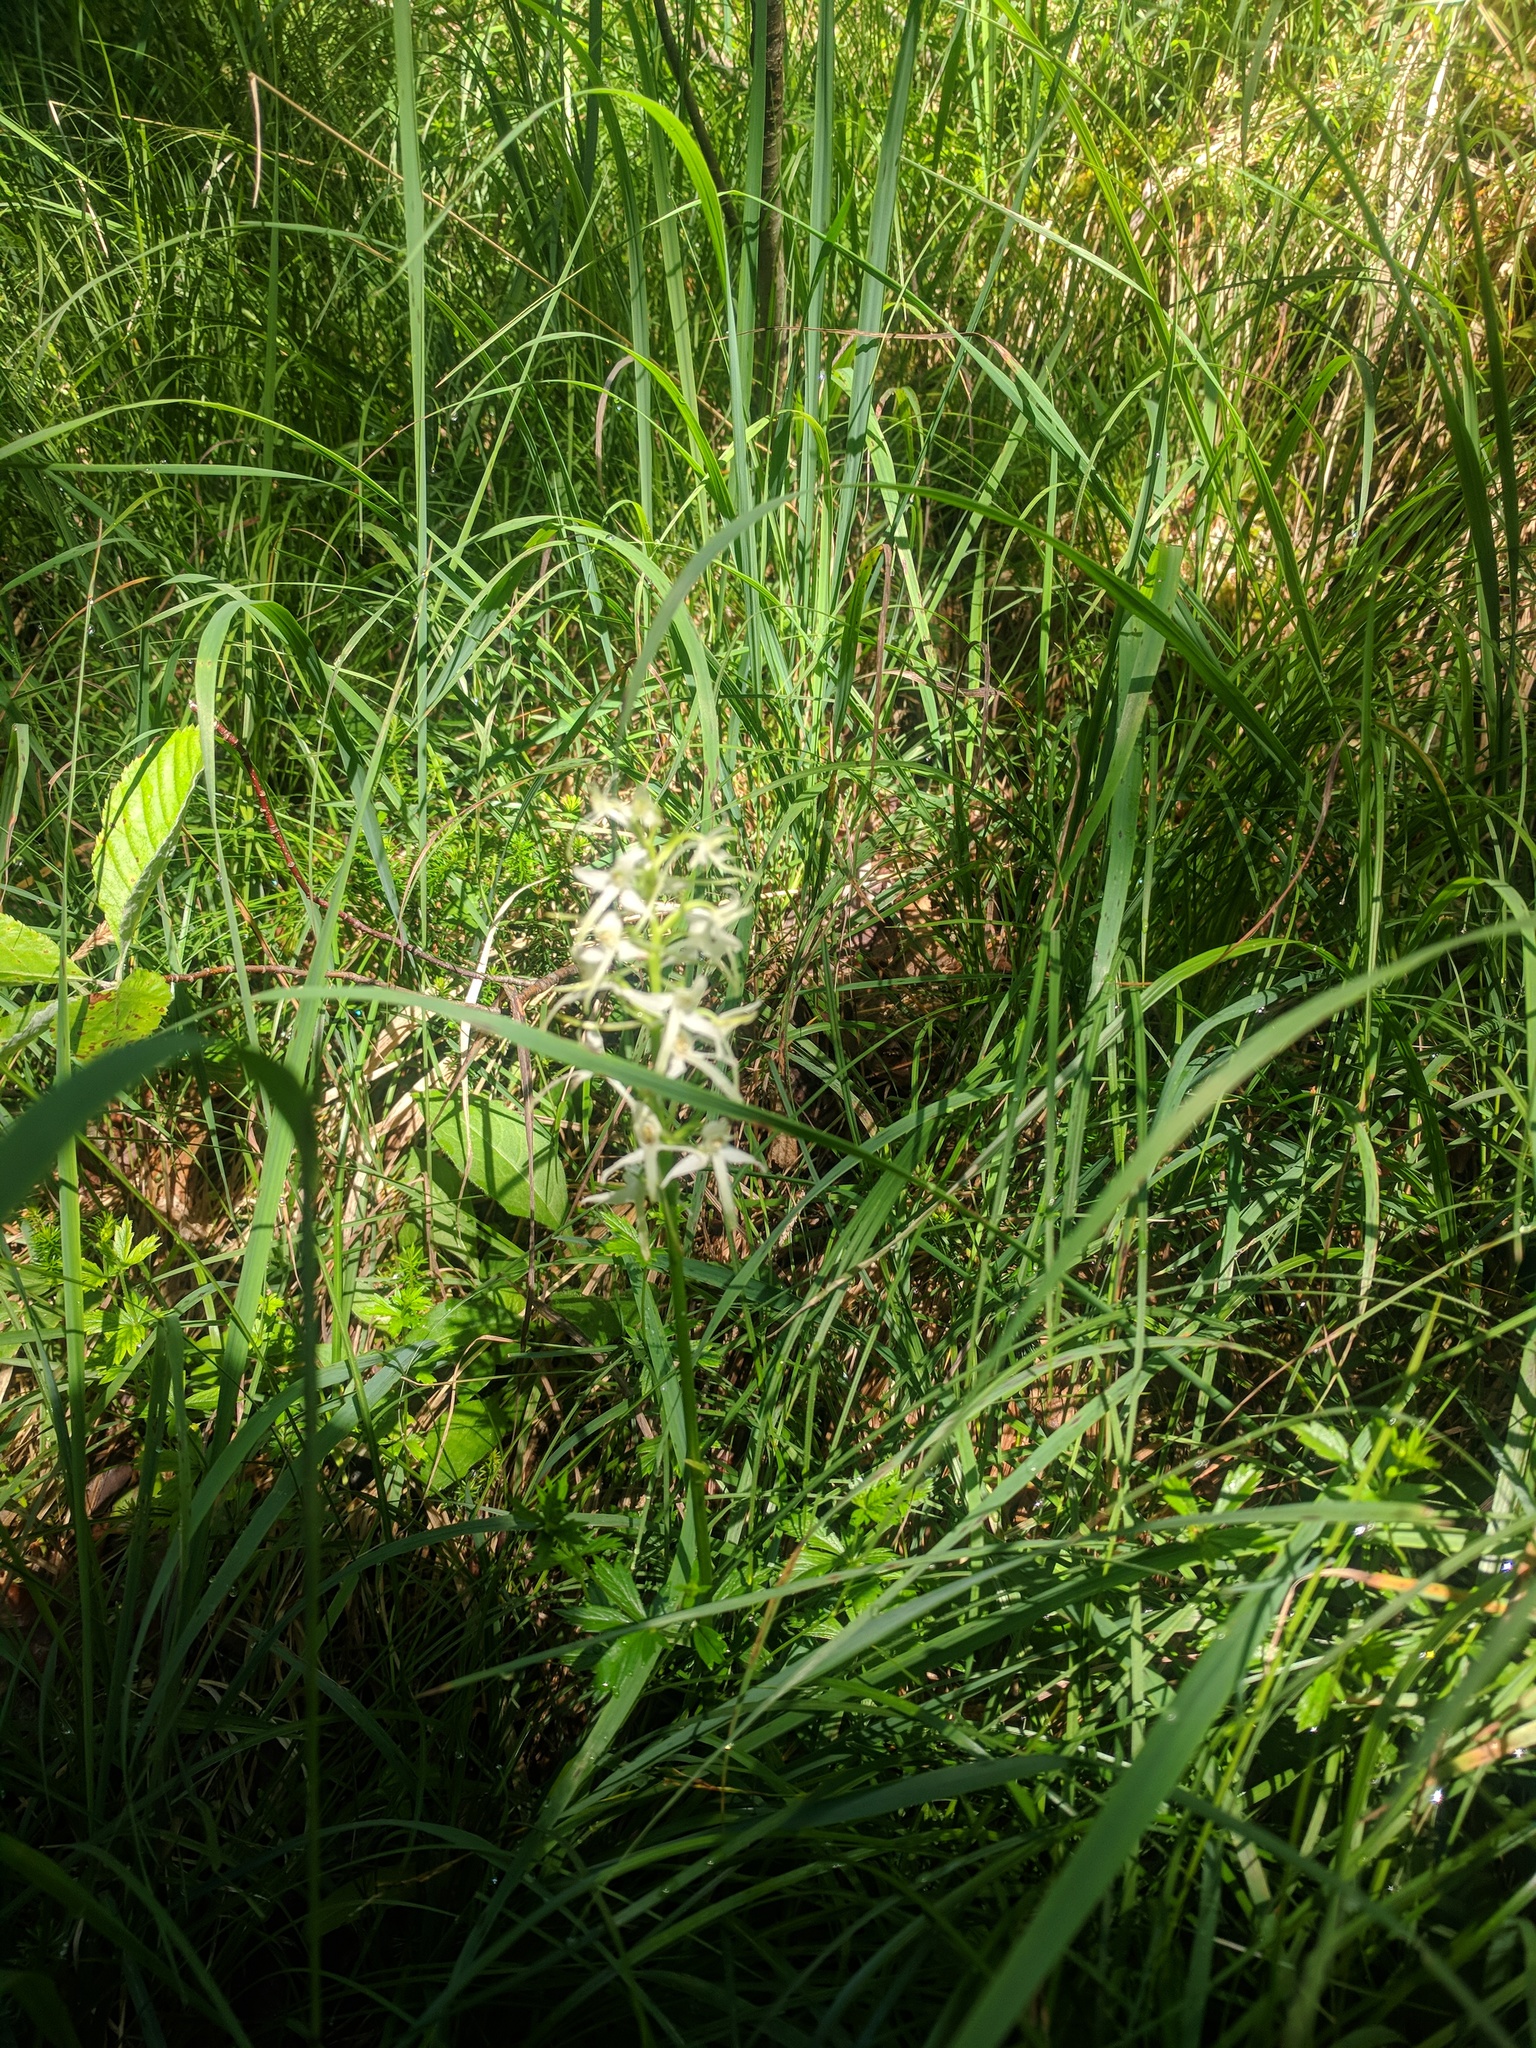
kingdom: Plantae
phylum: Tracheophyta
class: Liliopsida
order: Asparagales
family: Orchidaceae
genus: Platanthera
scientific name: Platanthera bifolia
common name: Lesser butterfly-orchid
